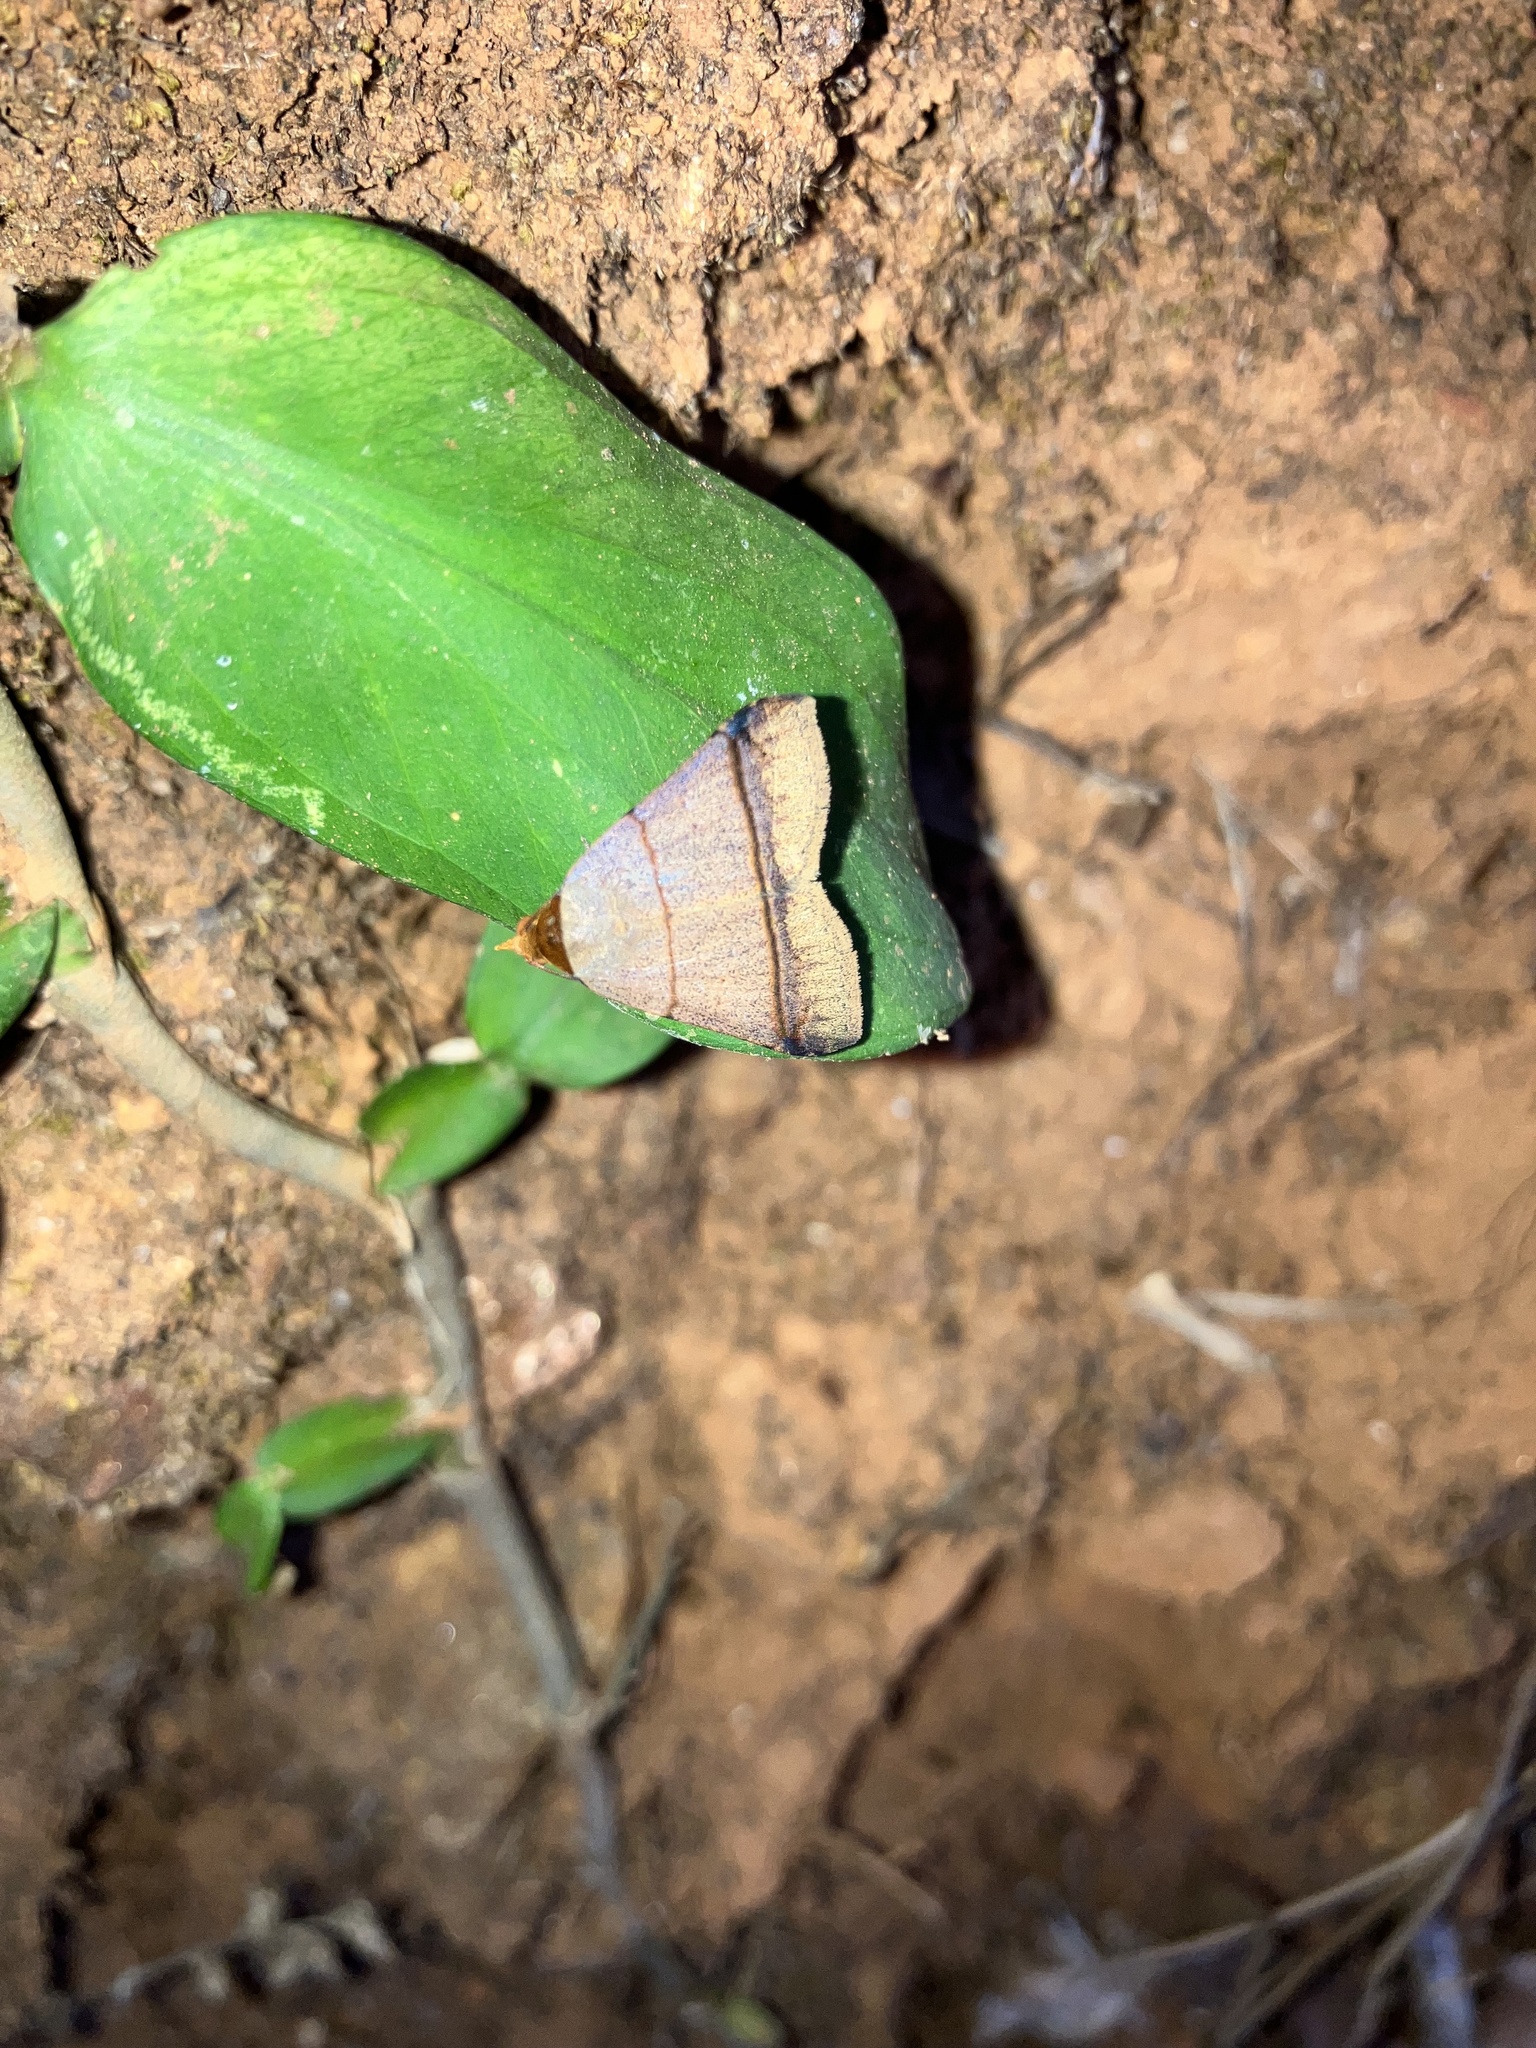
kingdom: Animalia
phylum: Arthropoda
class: Insecta
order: Lepidoptera
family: Erebidae
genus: Plecoptera
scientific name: Plecoptera recta
